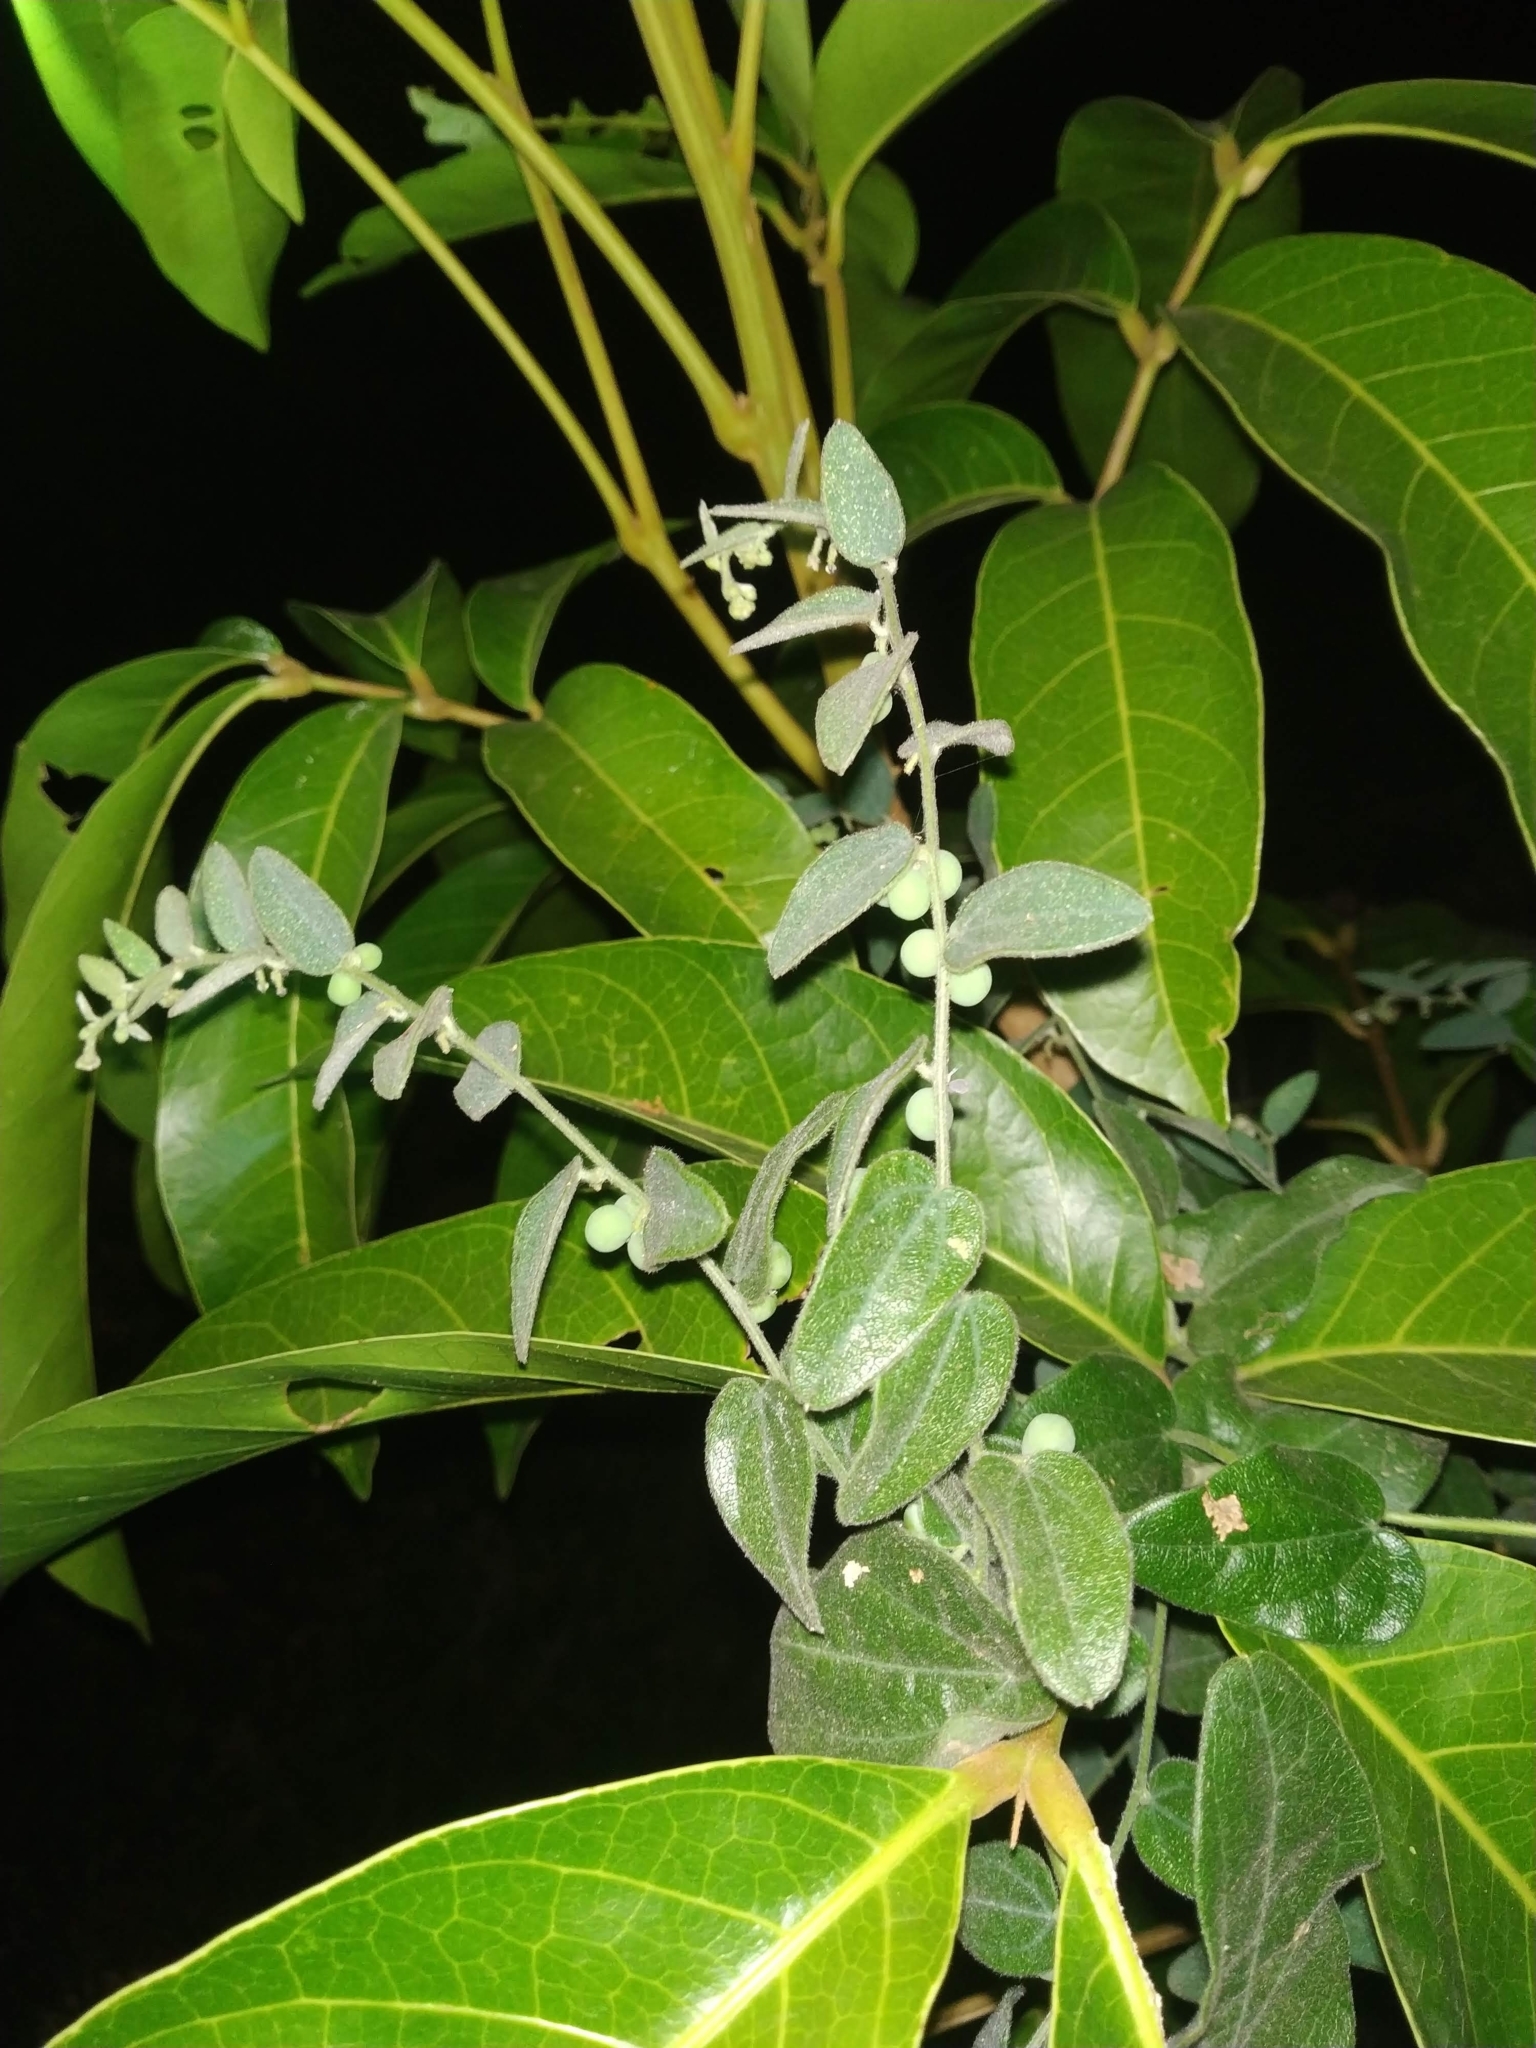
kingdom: Plantae
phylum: Tracheophyta
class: Magnoliopsida
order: Ranunculales
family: Menispermaceae
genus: Cocculus
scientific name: Cocculus hirsutus
